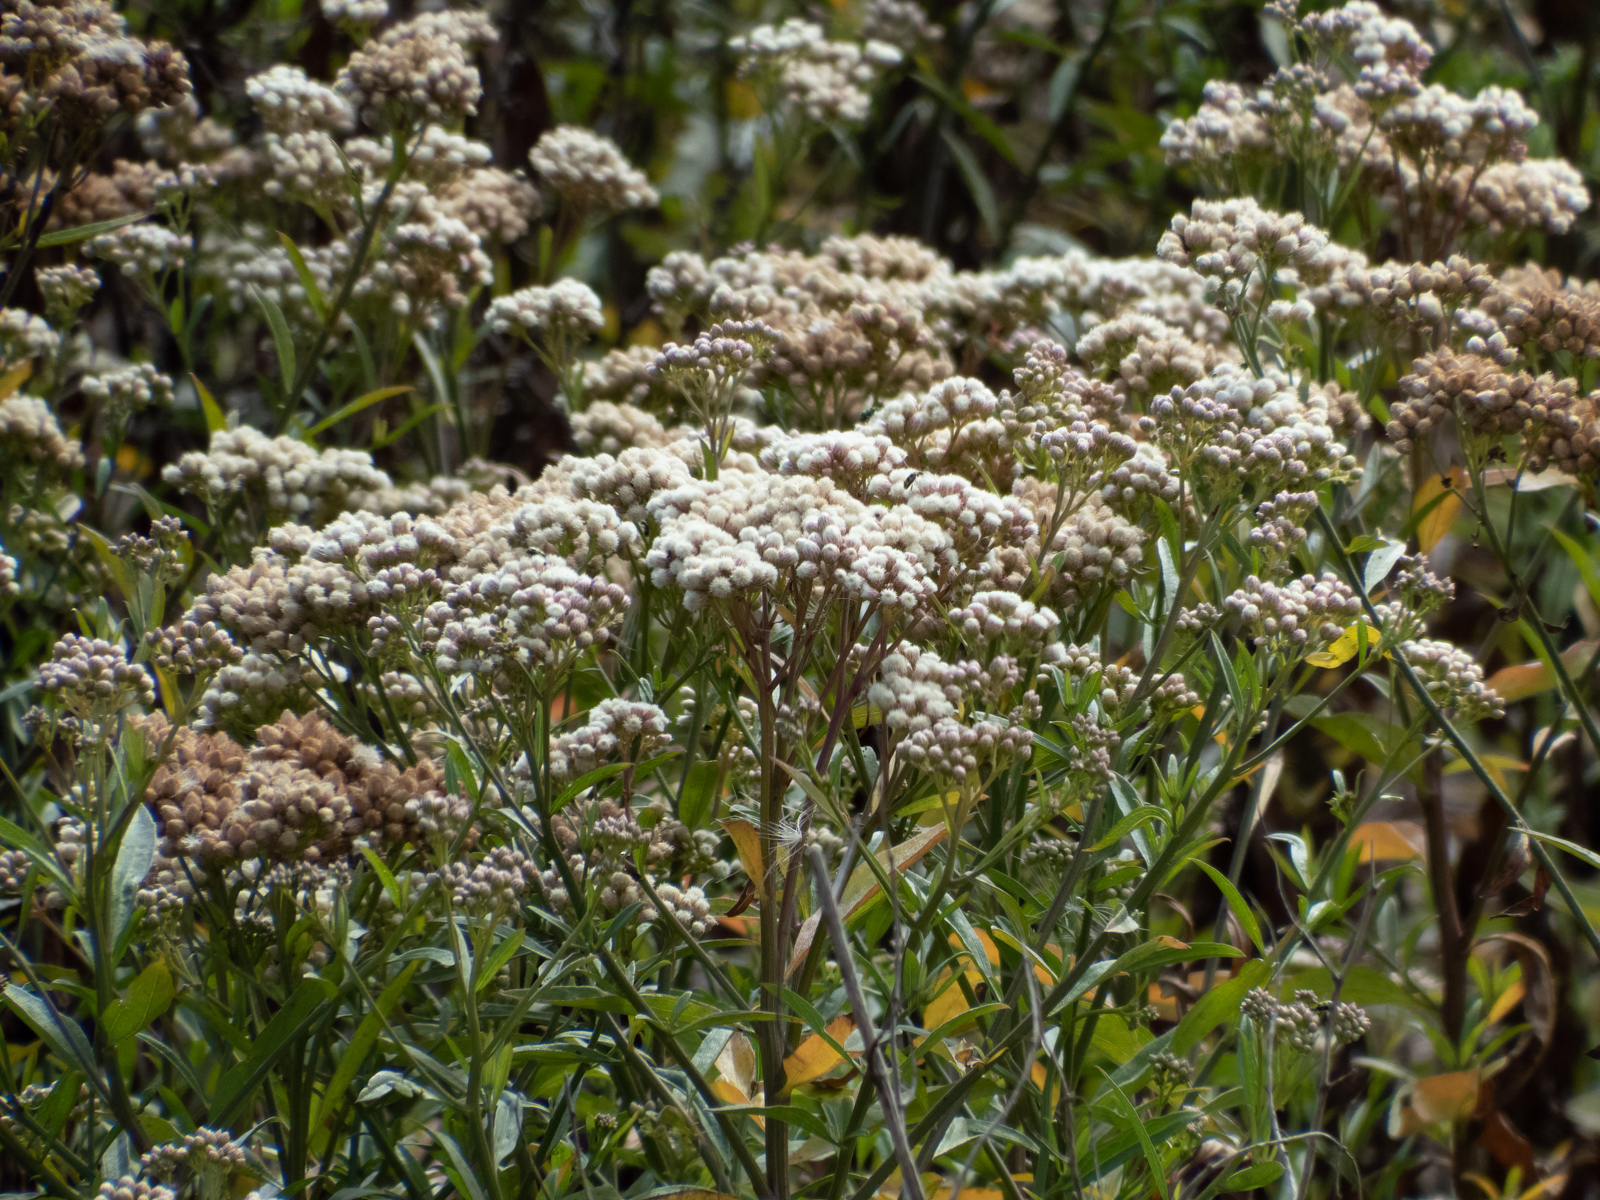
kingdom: Plantae
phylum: Tracheophyta
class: Magnoliopsida
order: Asterales
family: Asteraceae
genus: Baccharis
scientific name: Baccharis glutinosa
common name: Saltmarsh baccharis
